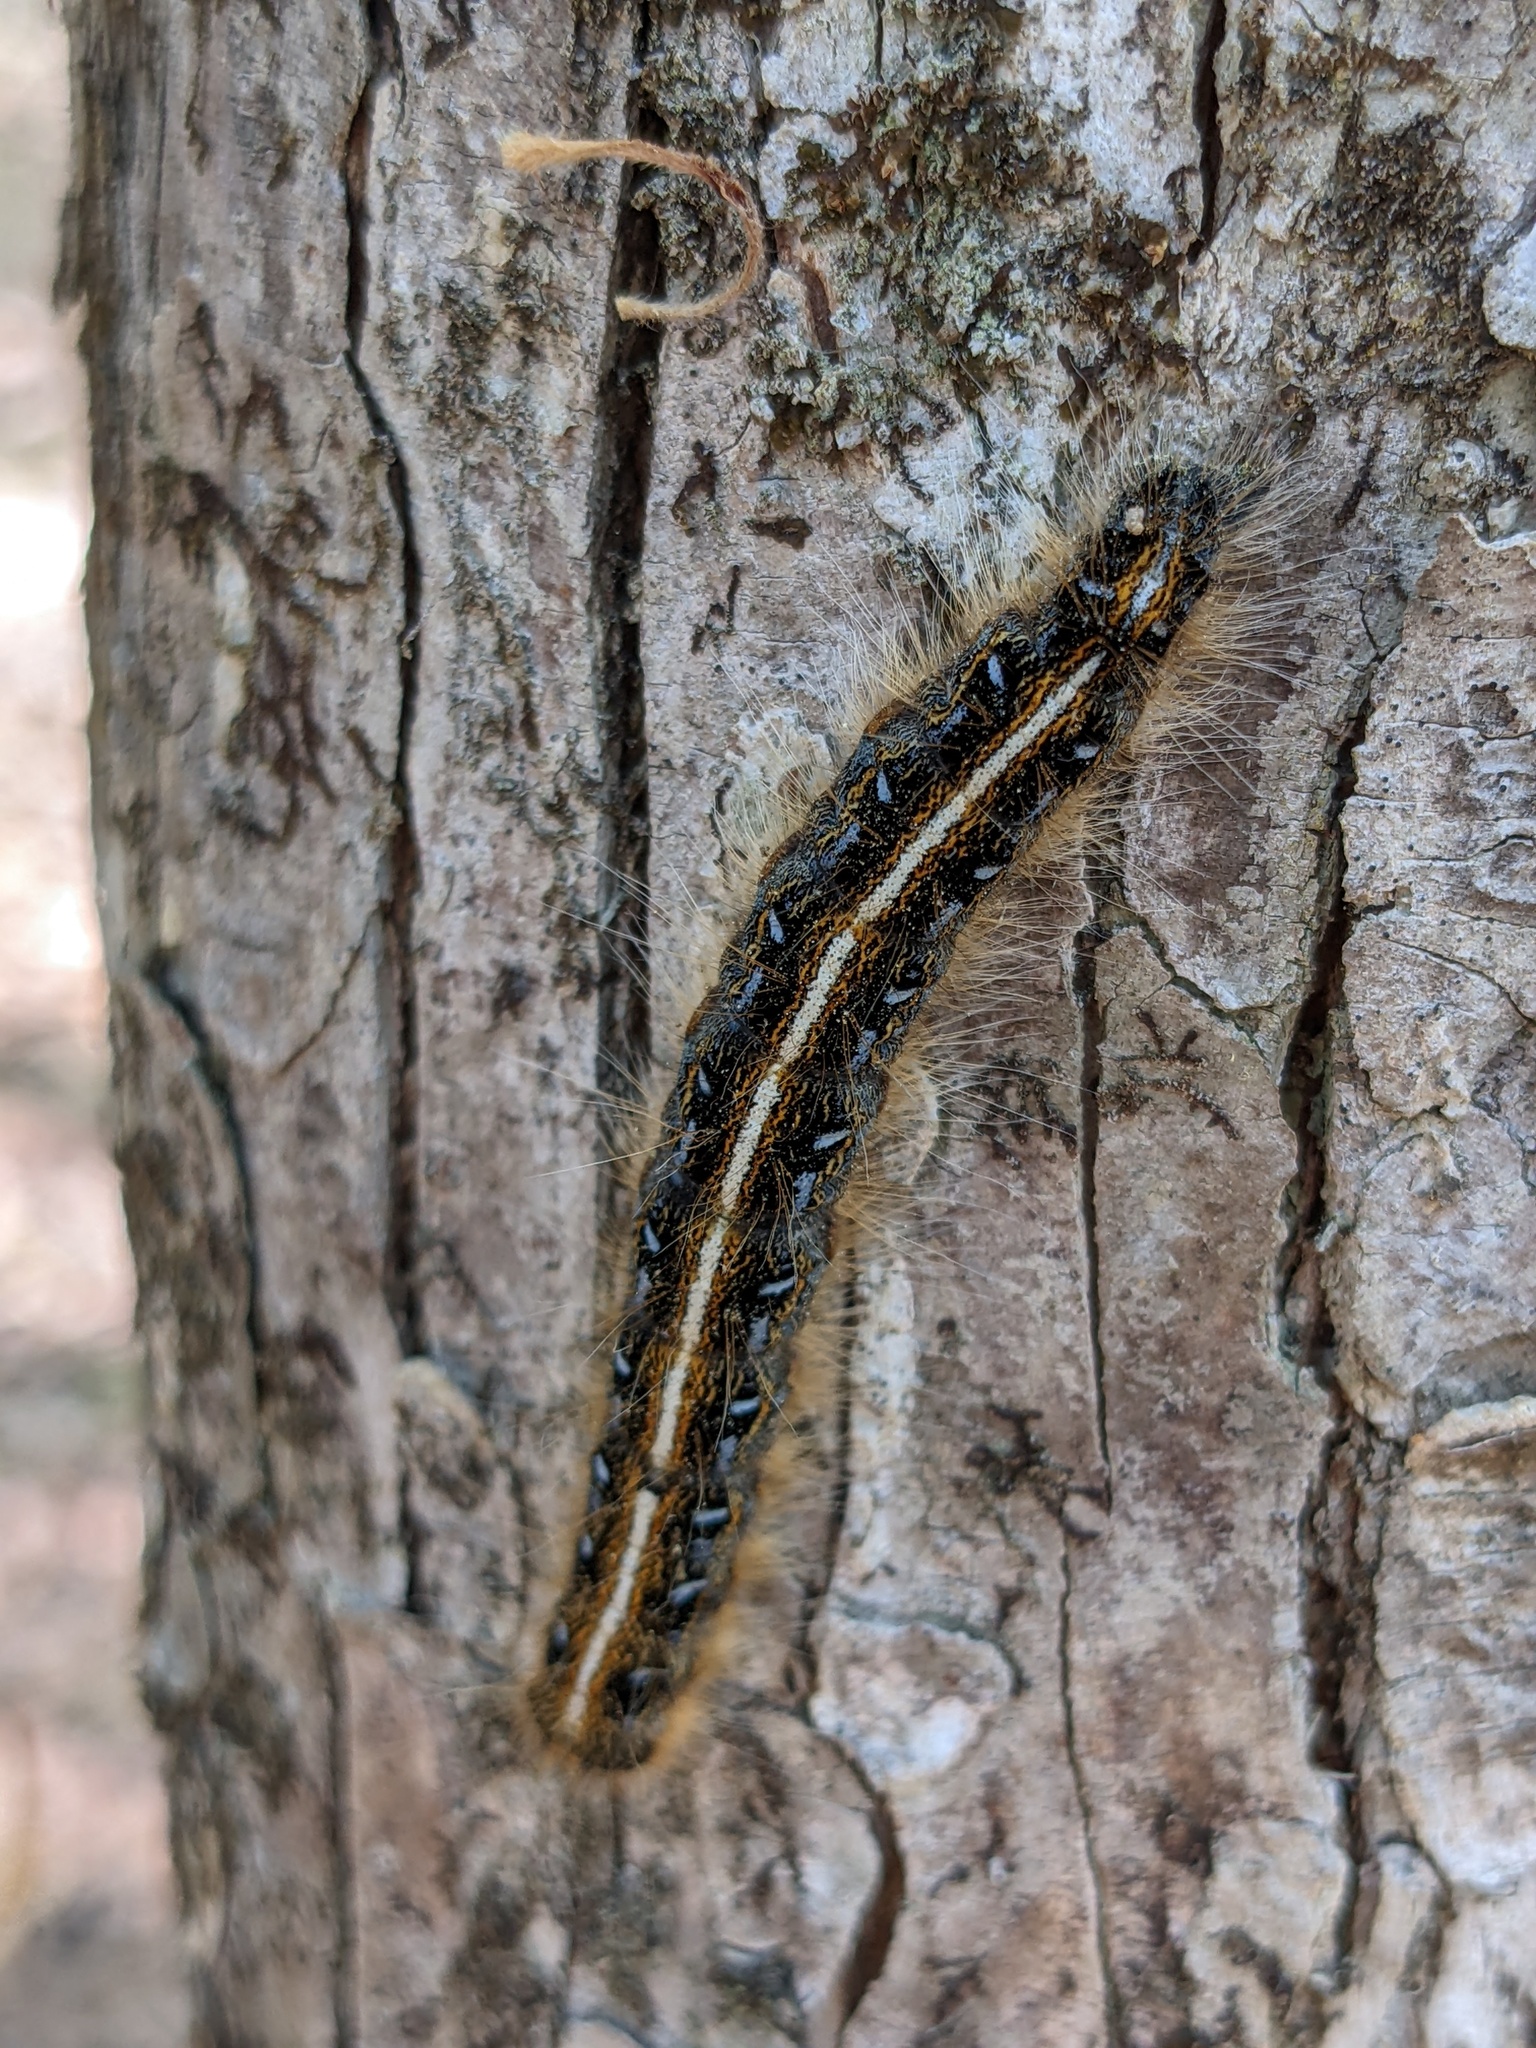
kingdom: Animalia
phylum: Arthropoda
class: Insecta
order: Lepidoptera
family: Lasiocampidae
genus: Malacosoma
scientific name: Malacosoma americana
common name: Eastern tent caterpillar moth
